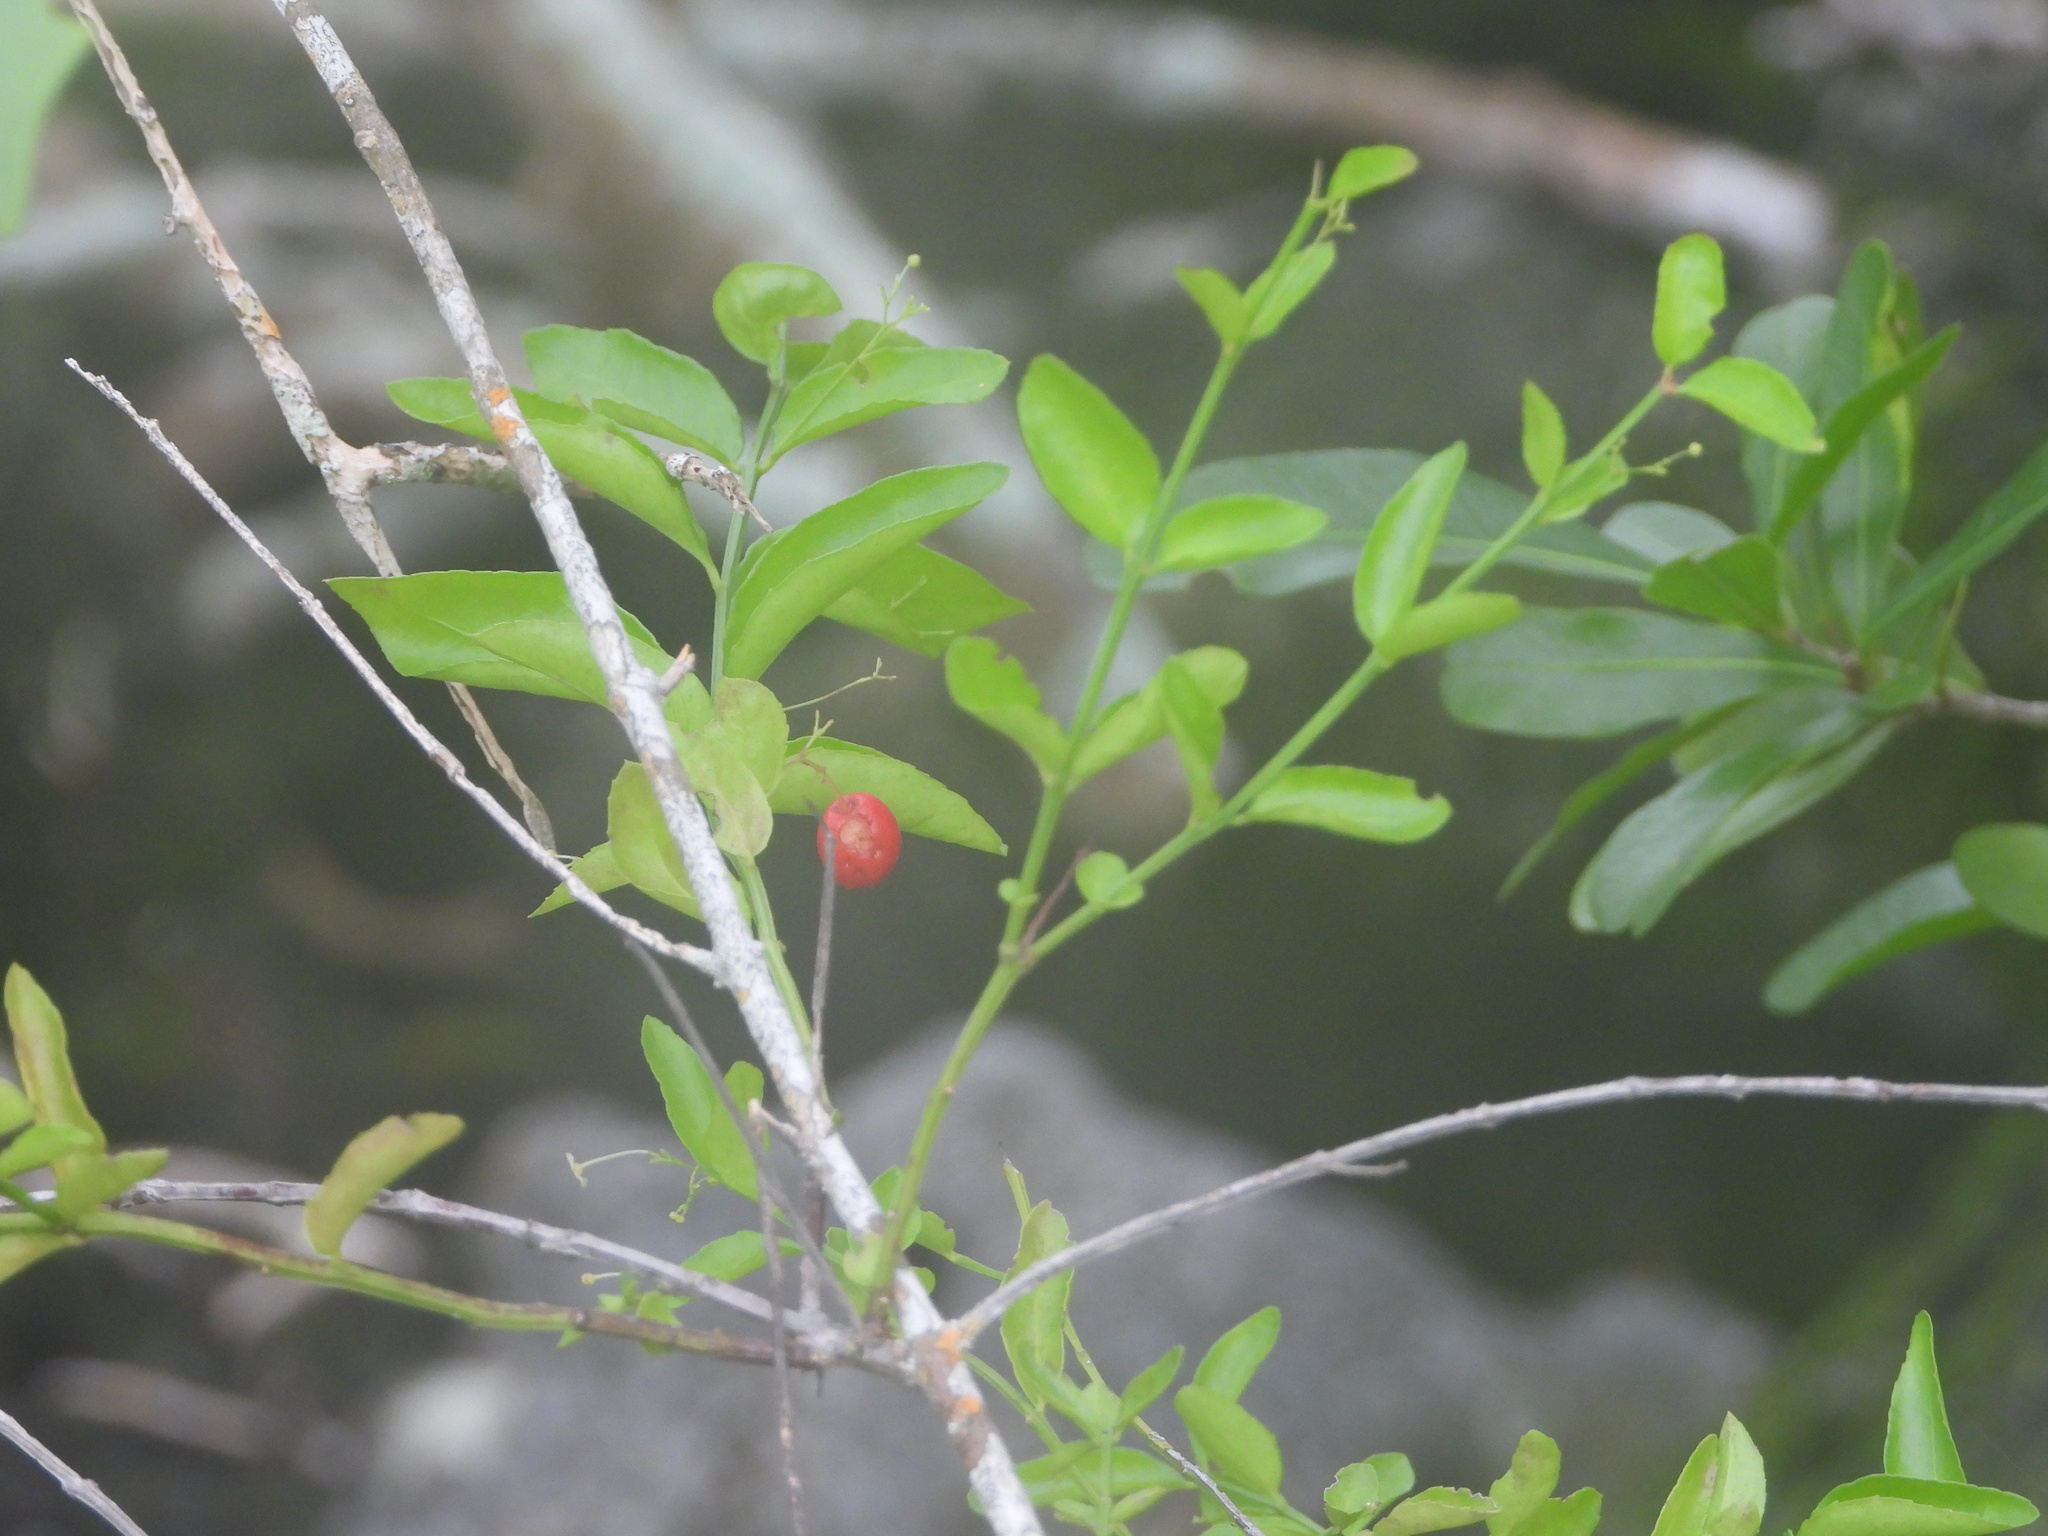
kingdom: Plantae
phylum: Tracheophyta
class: Magnoliopsida
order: Celastrales
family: Celastraceae
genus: Crossopetalum
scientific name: Crossopetalum rhacoma
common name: Maidenberry
